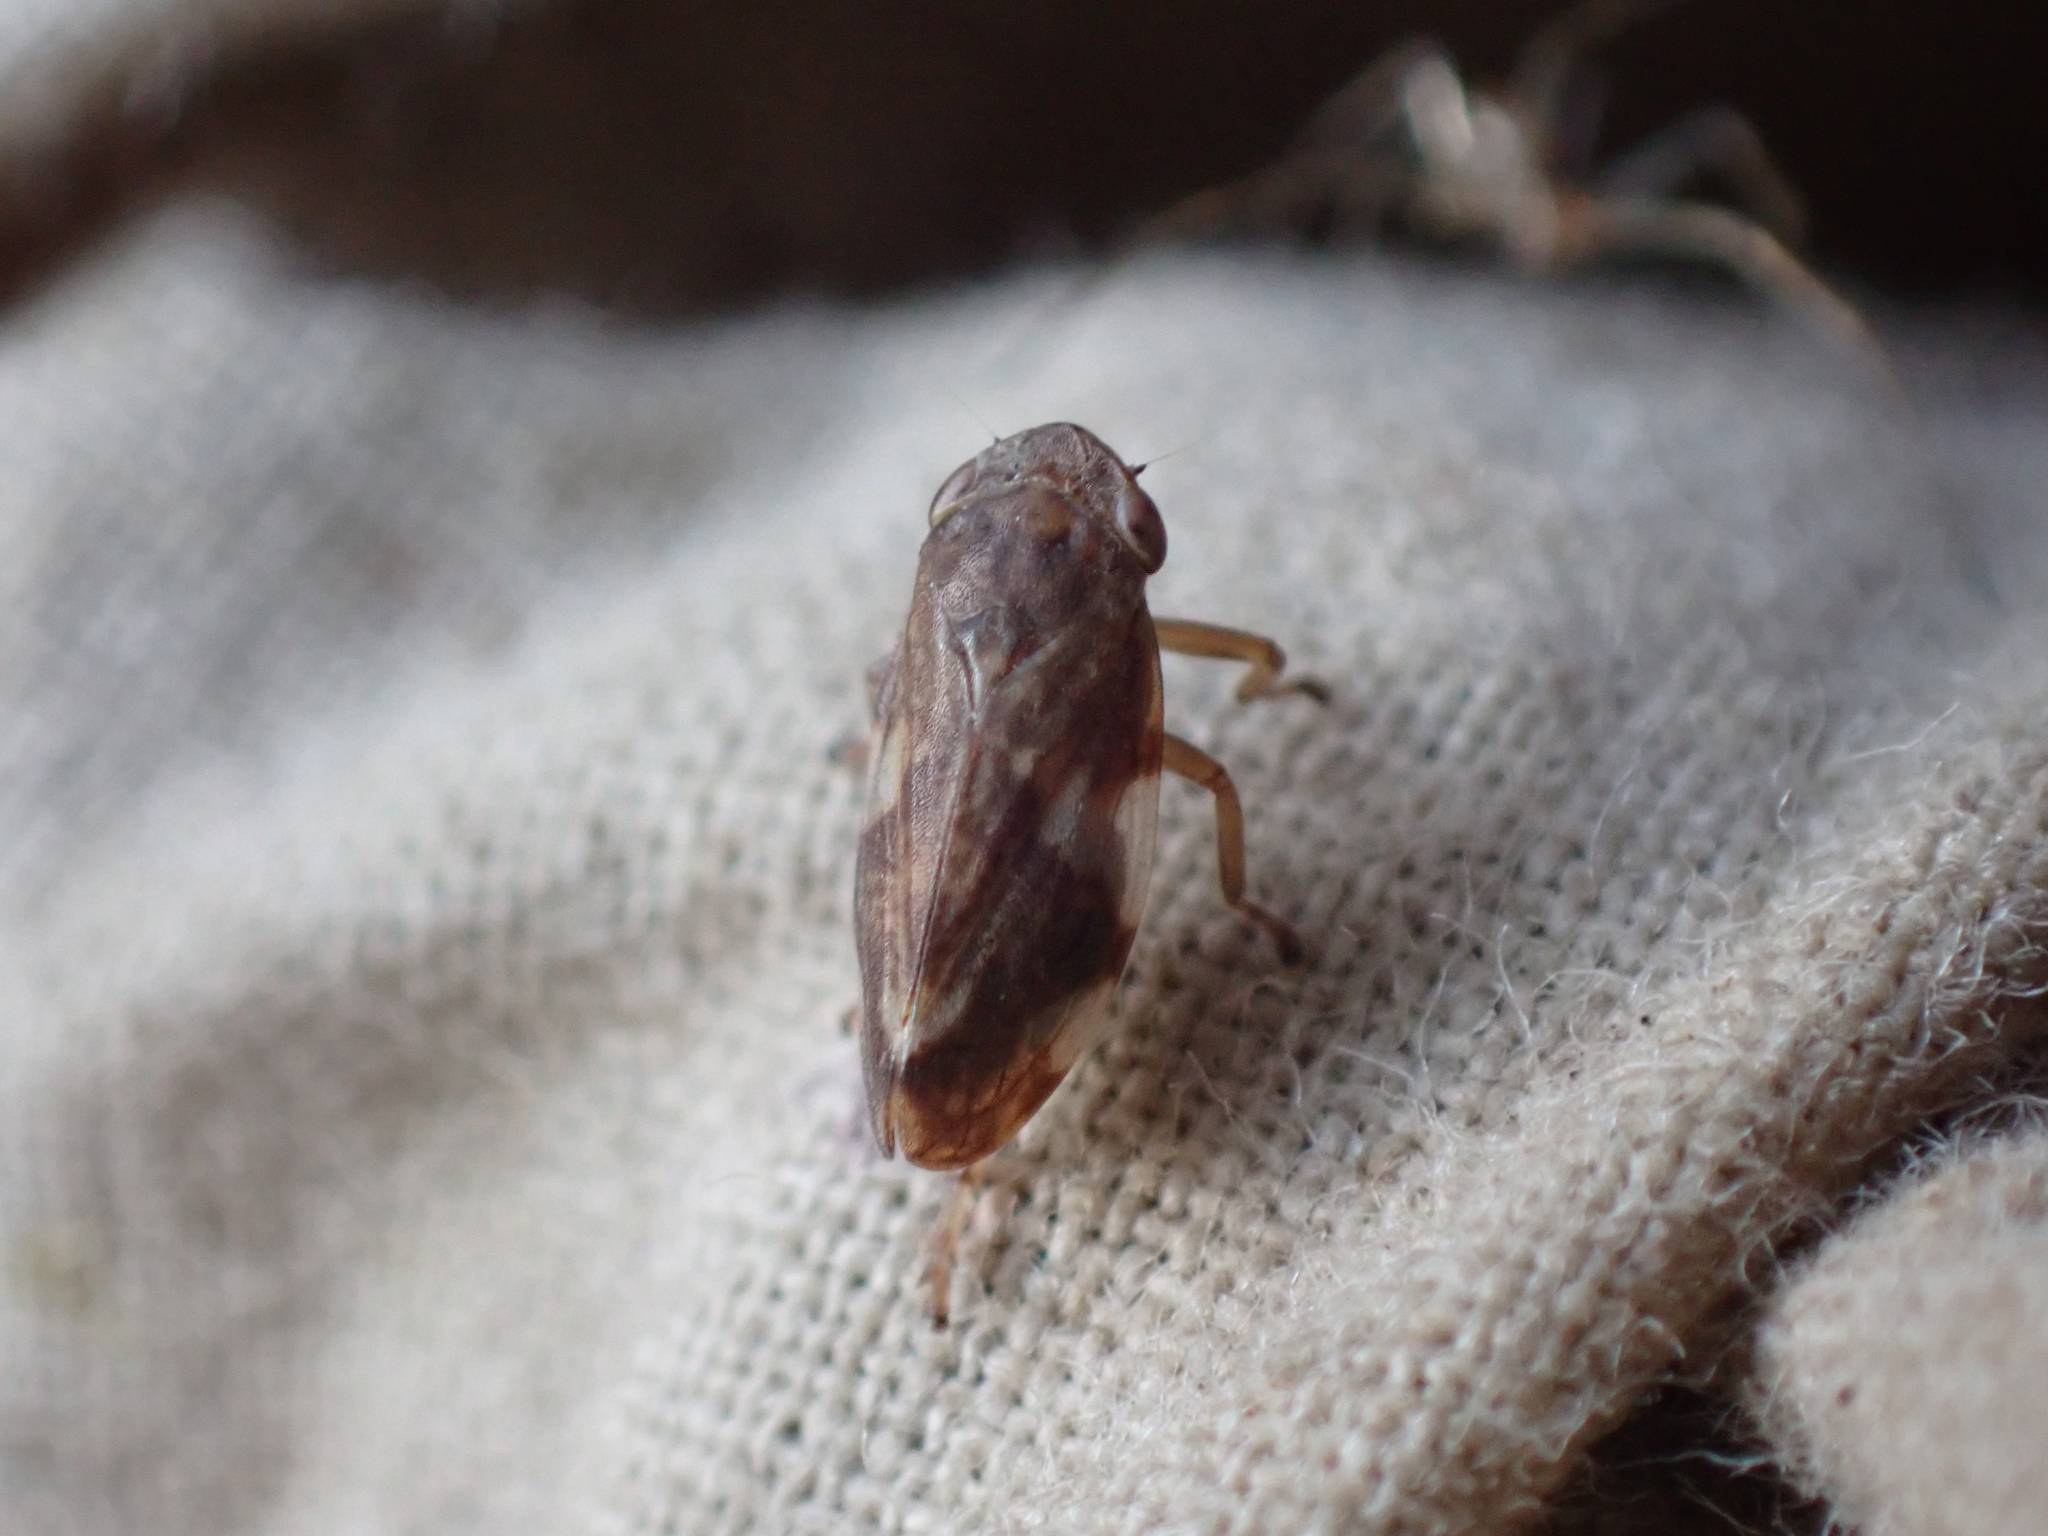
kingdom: Animalia
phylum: Arthropoda
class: Insecta
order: Hemiptera
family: Aphrophoridae
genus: Philaenus
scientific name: Philaenus spumarius
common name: Meadow spittlebug
